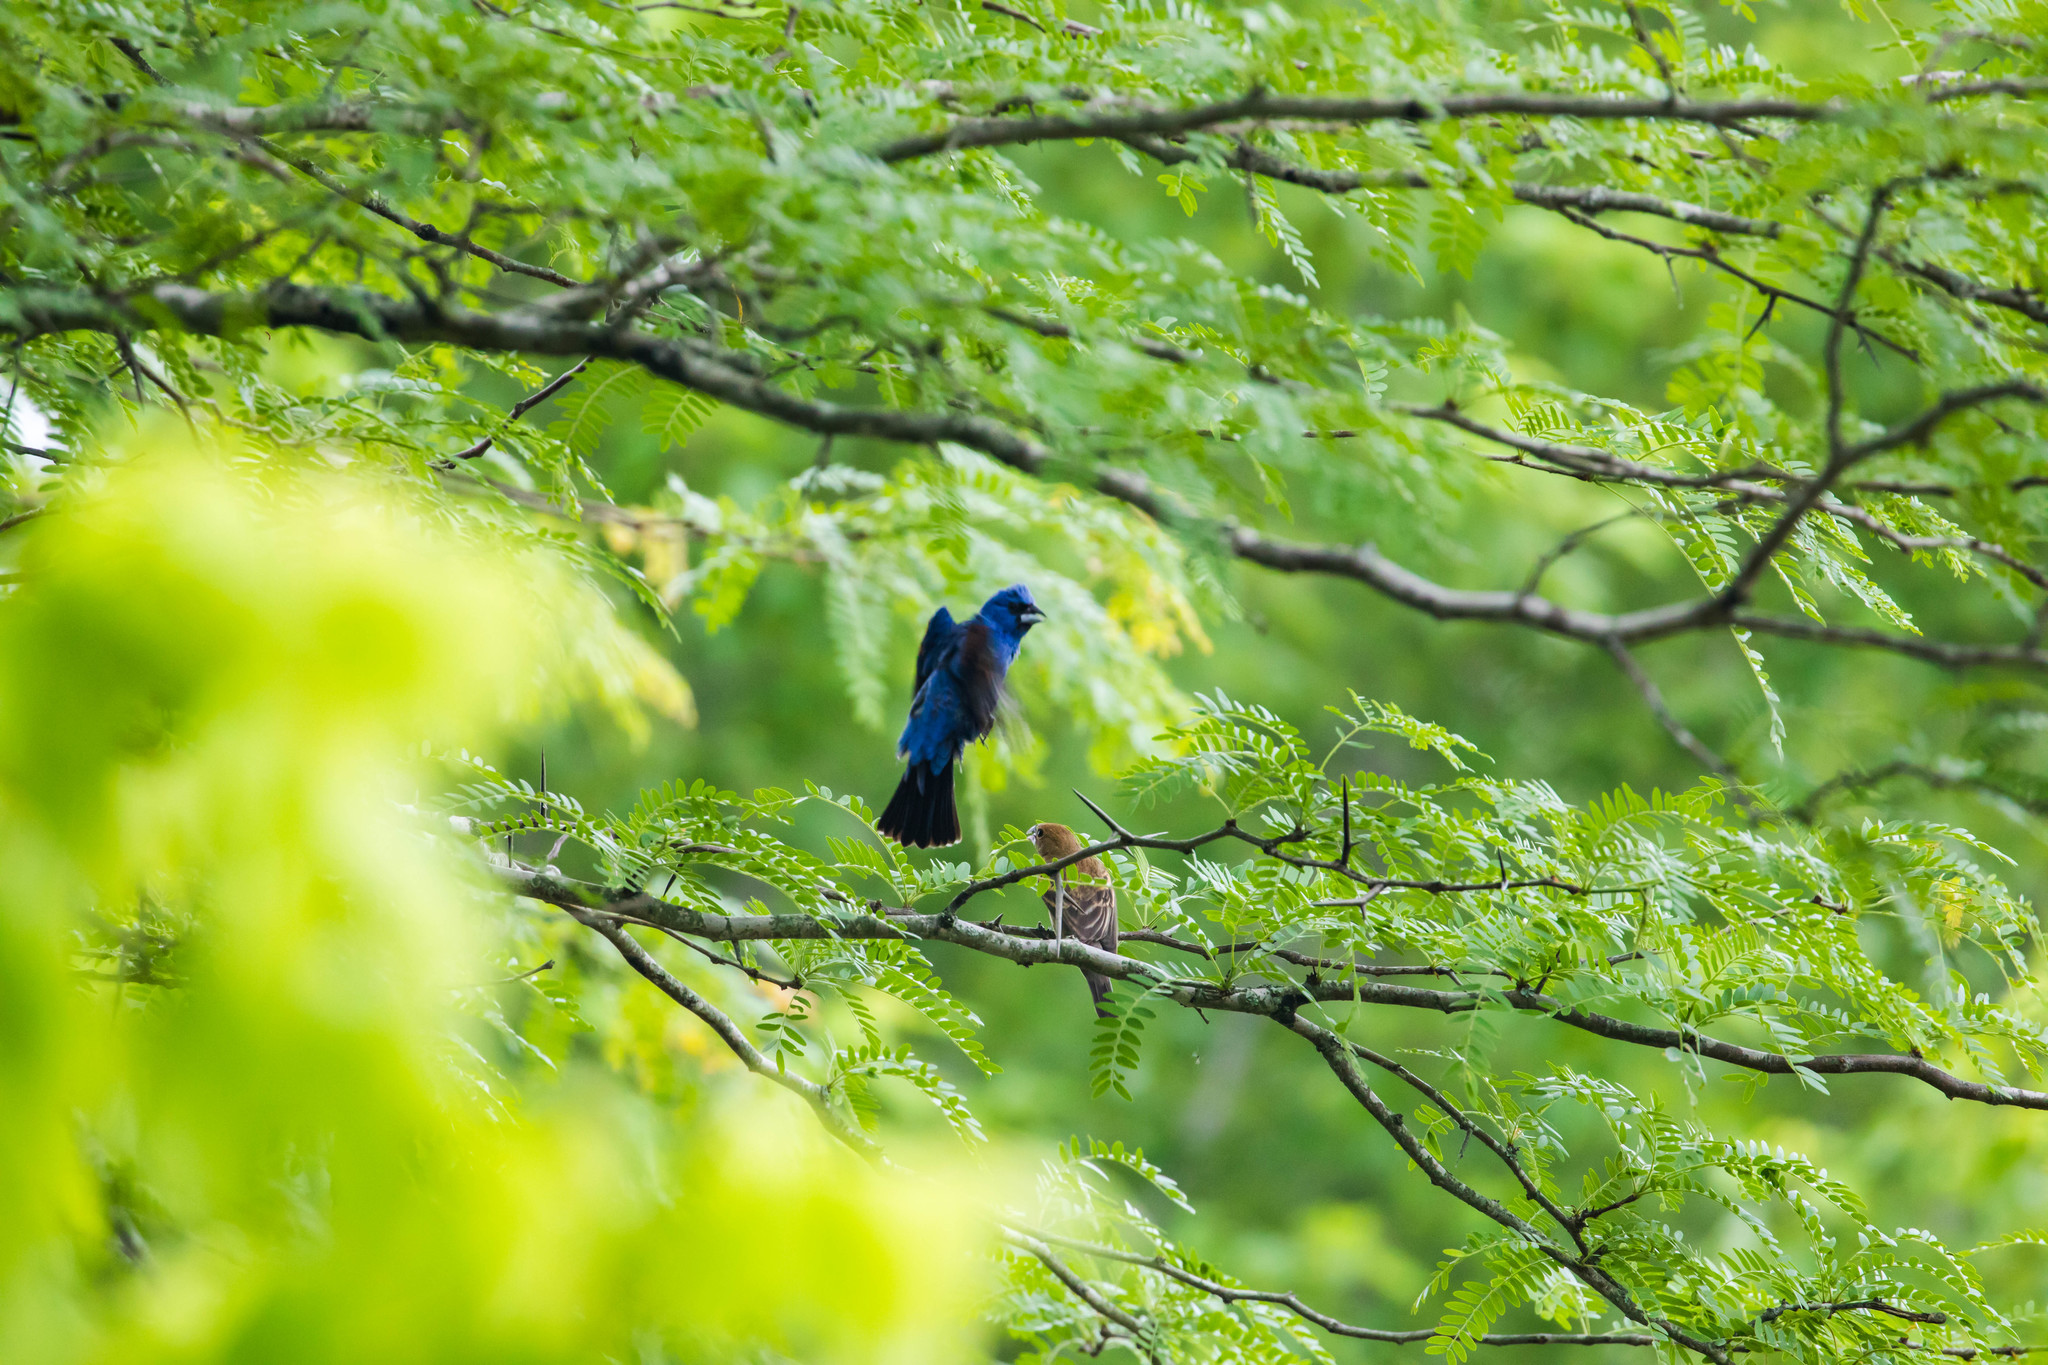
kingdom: Animalia
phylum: Chordata
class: Aves
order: Passeriformes
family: Cardinalidae
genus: Passerina
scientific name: Passerina caerulea
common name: Blue grosbeak
